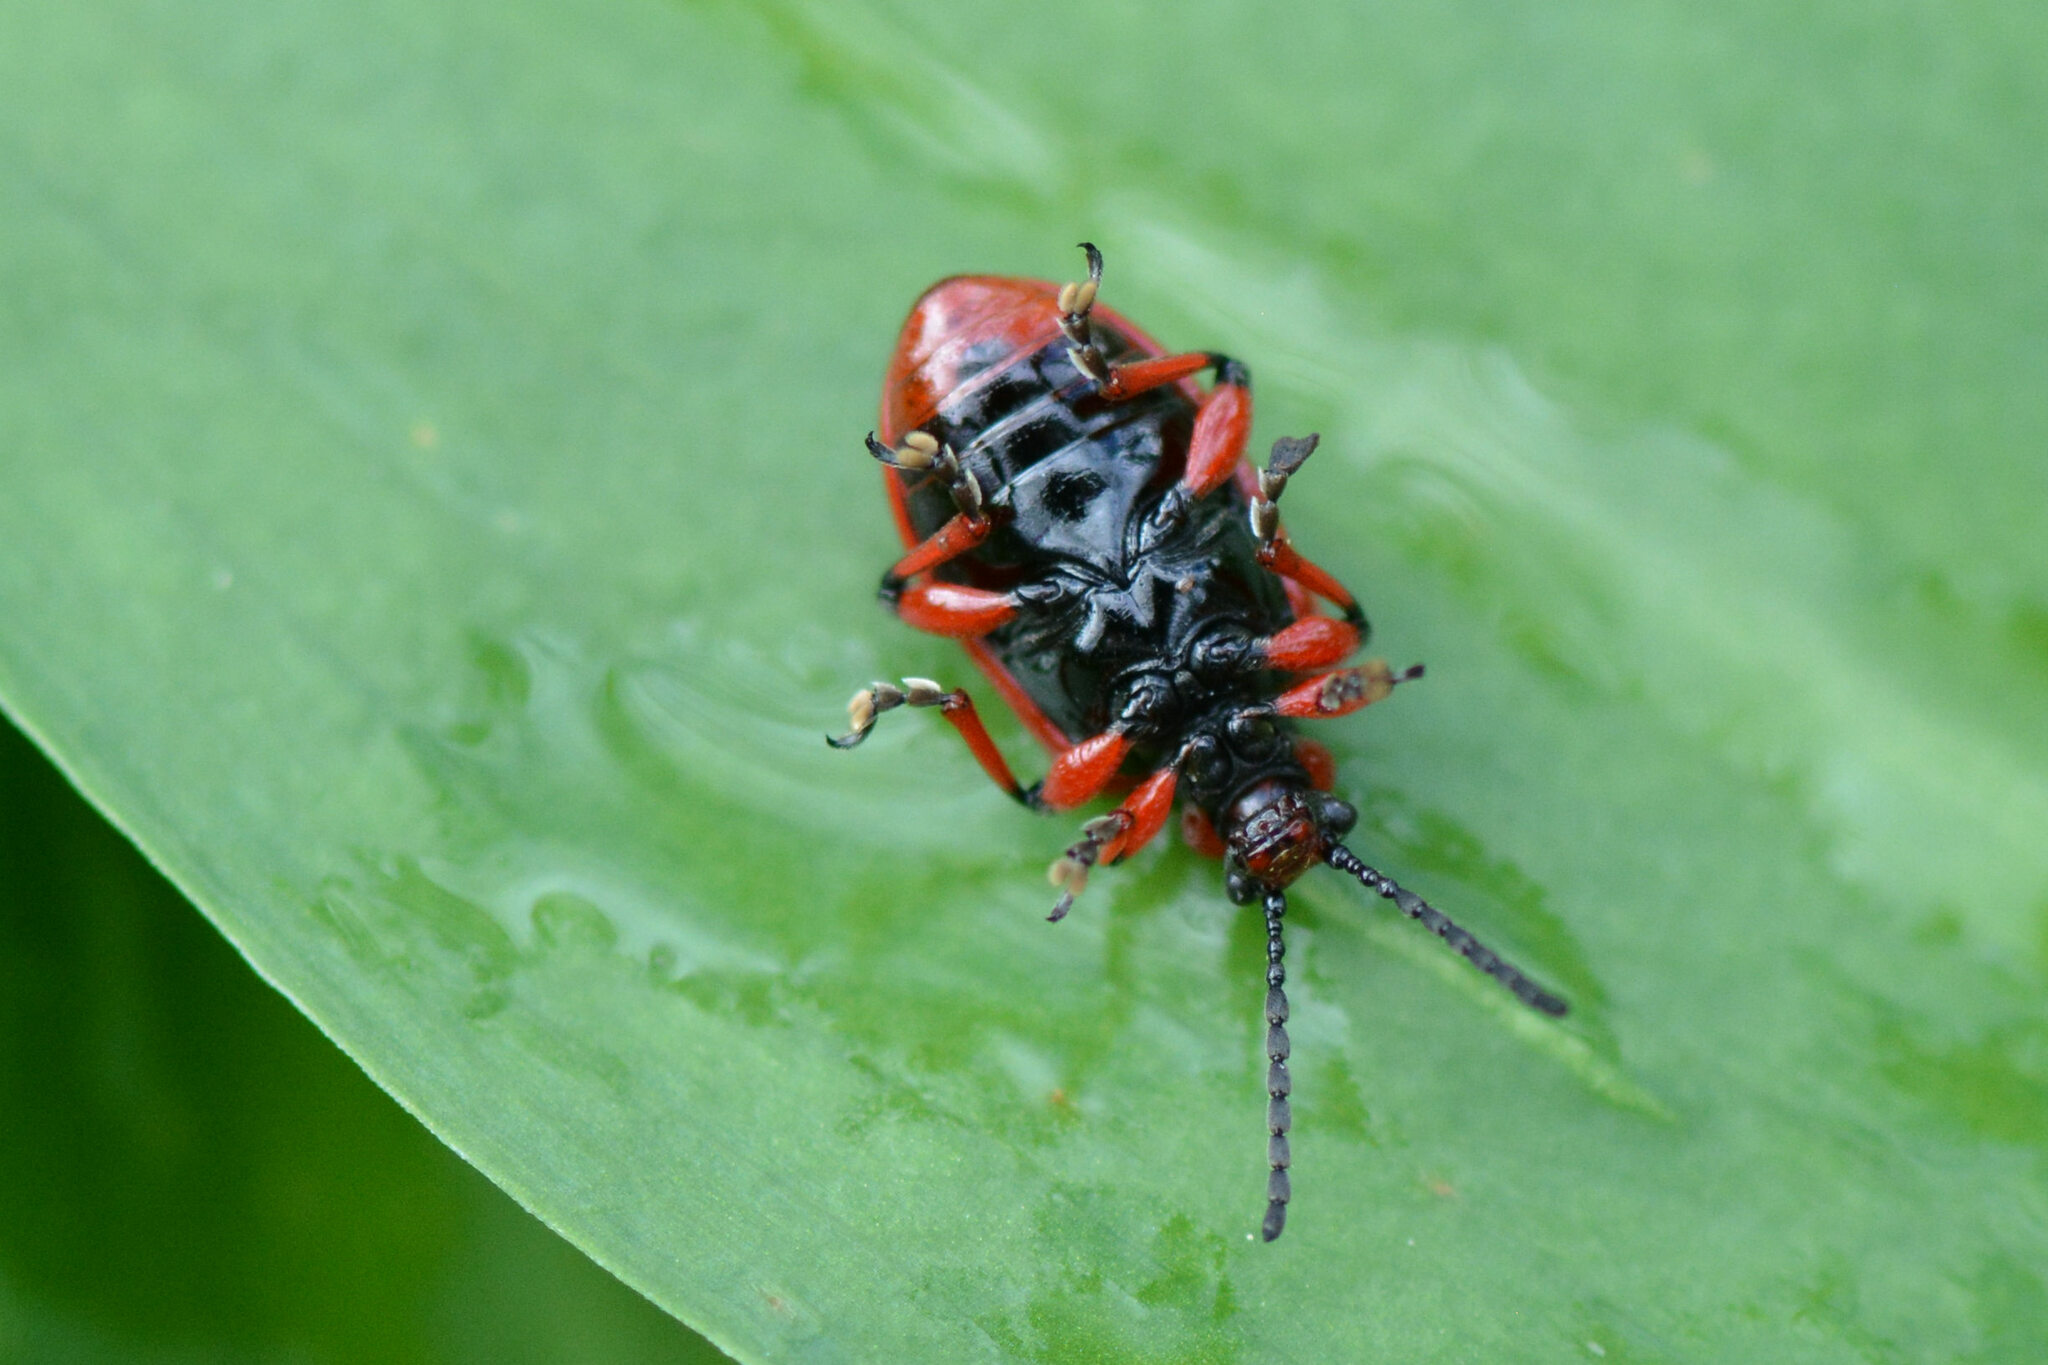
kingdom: Animalia
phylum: Arthropoda
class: Insecta
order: Coleoptera
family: Chrysomelidae
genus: Lilioceris
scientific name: Lilioceris merdigera
